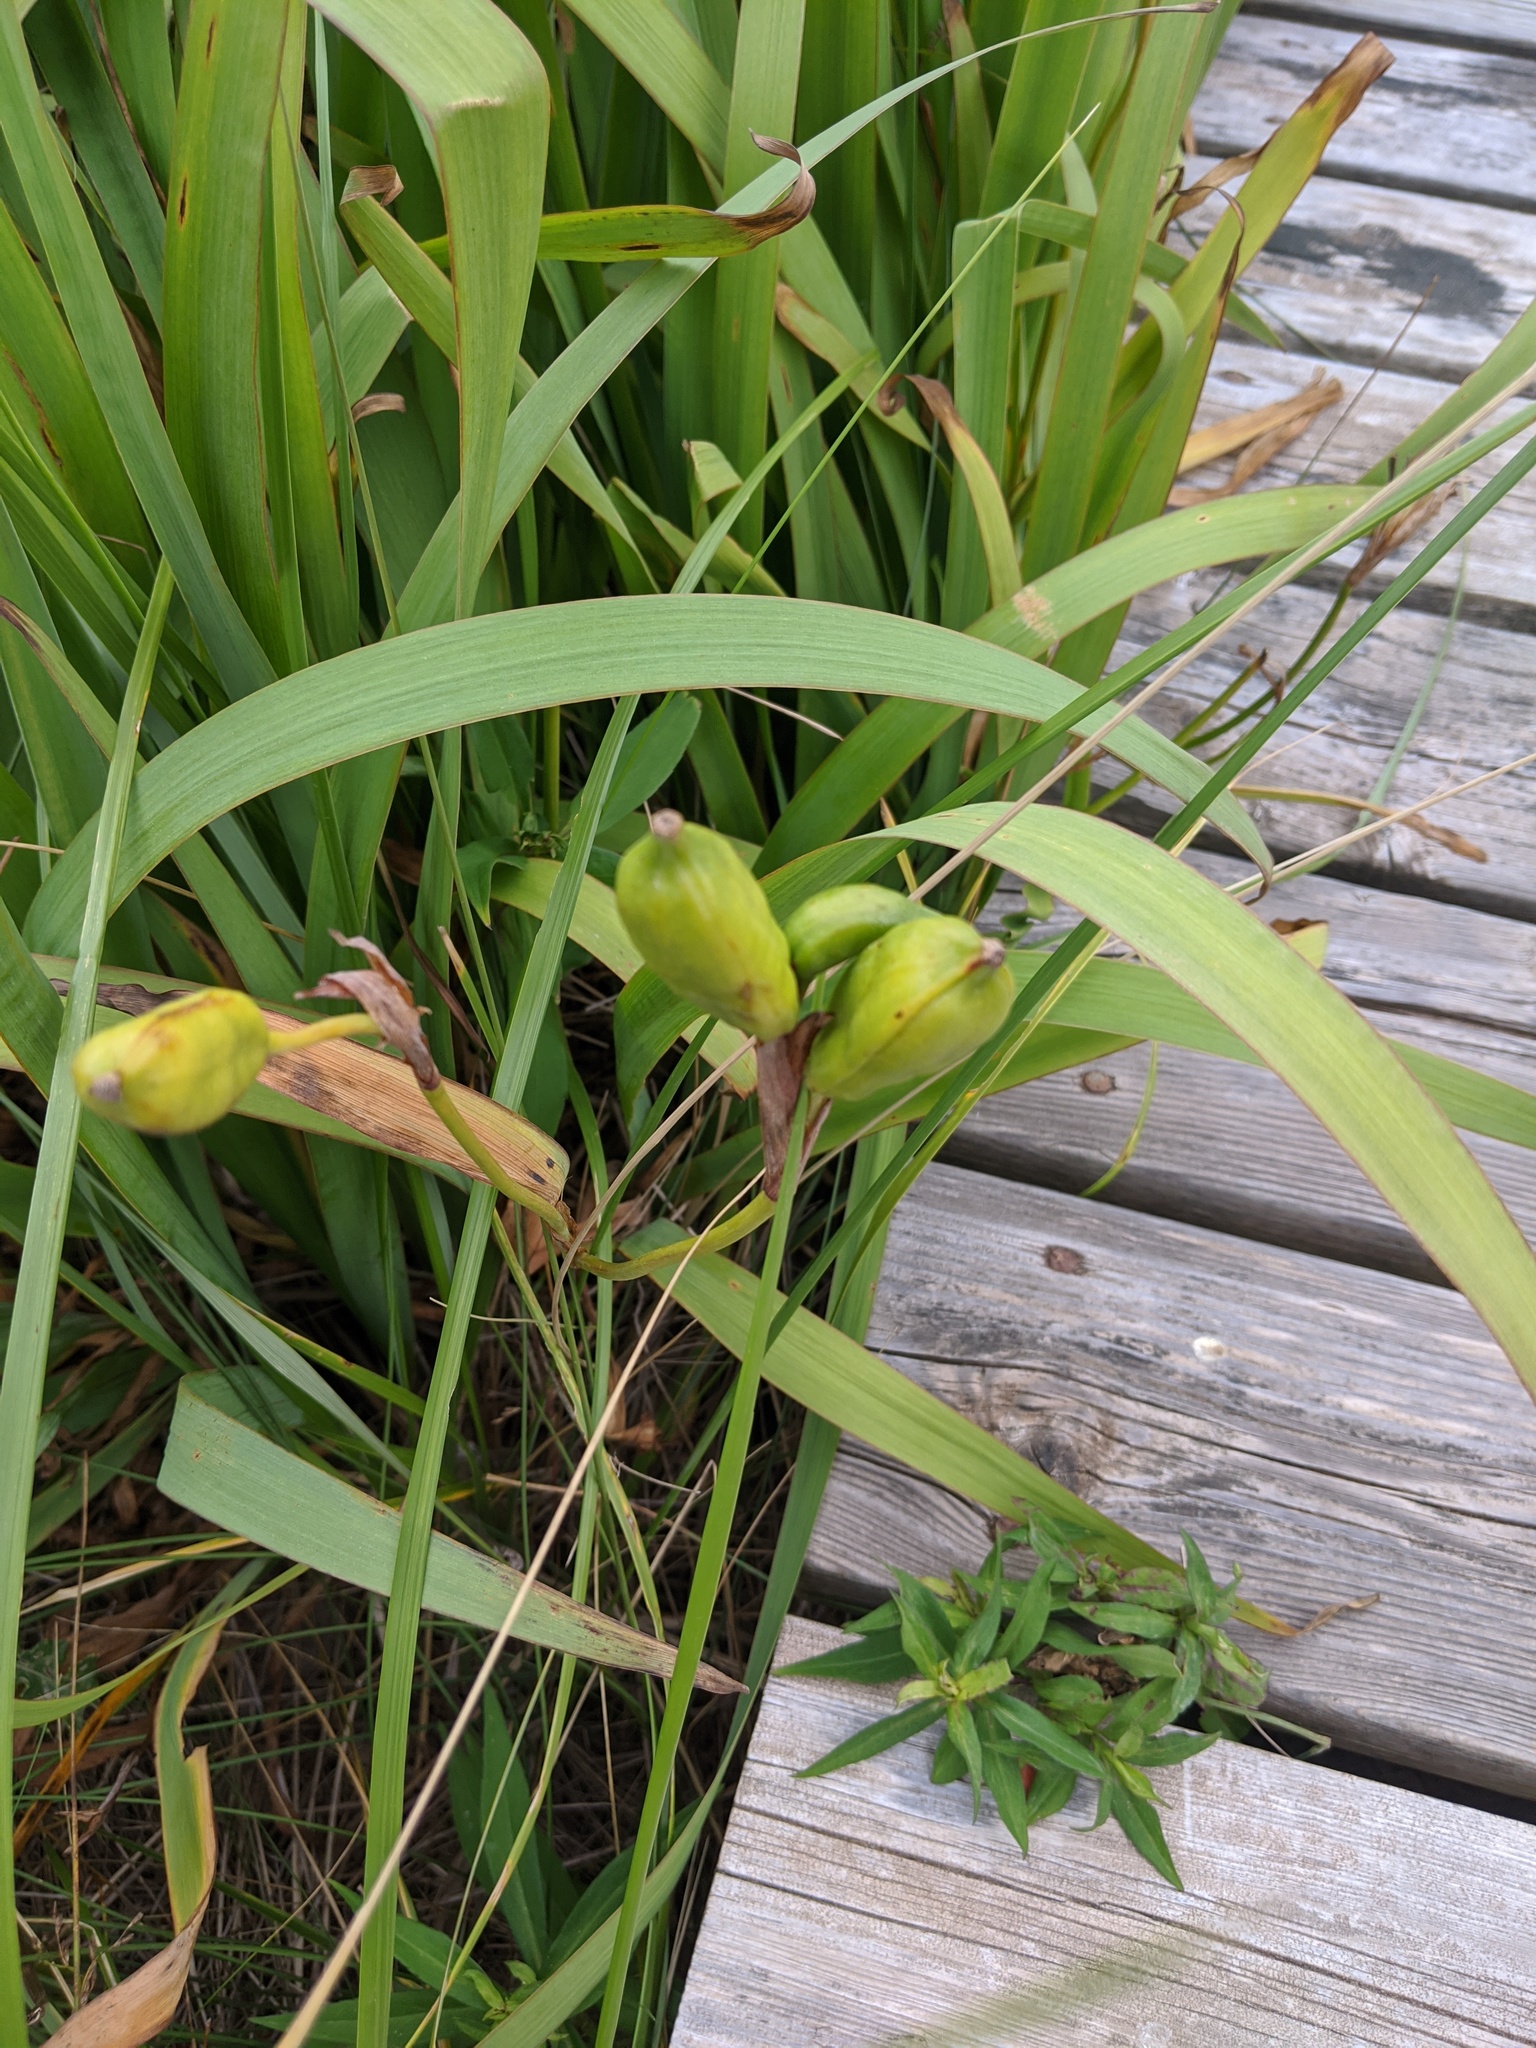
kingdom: Plantae
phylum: Tracheophyta
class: Liliopsida
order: Asparagales
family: Iridaceae
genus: Iris
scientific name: Iris versicolor
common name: Purple iris
